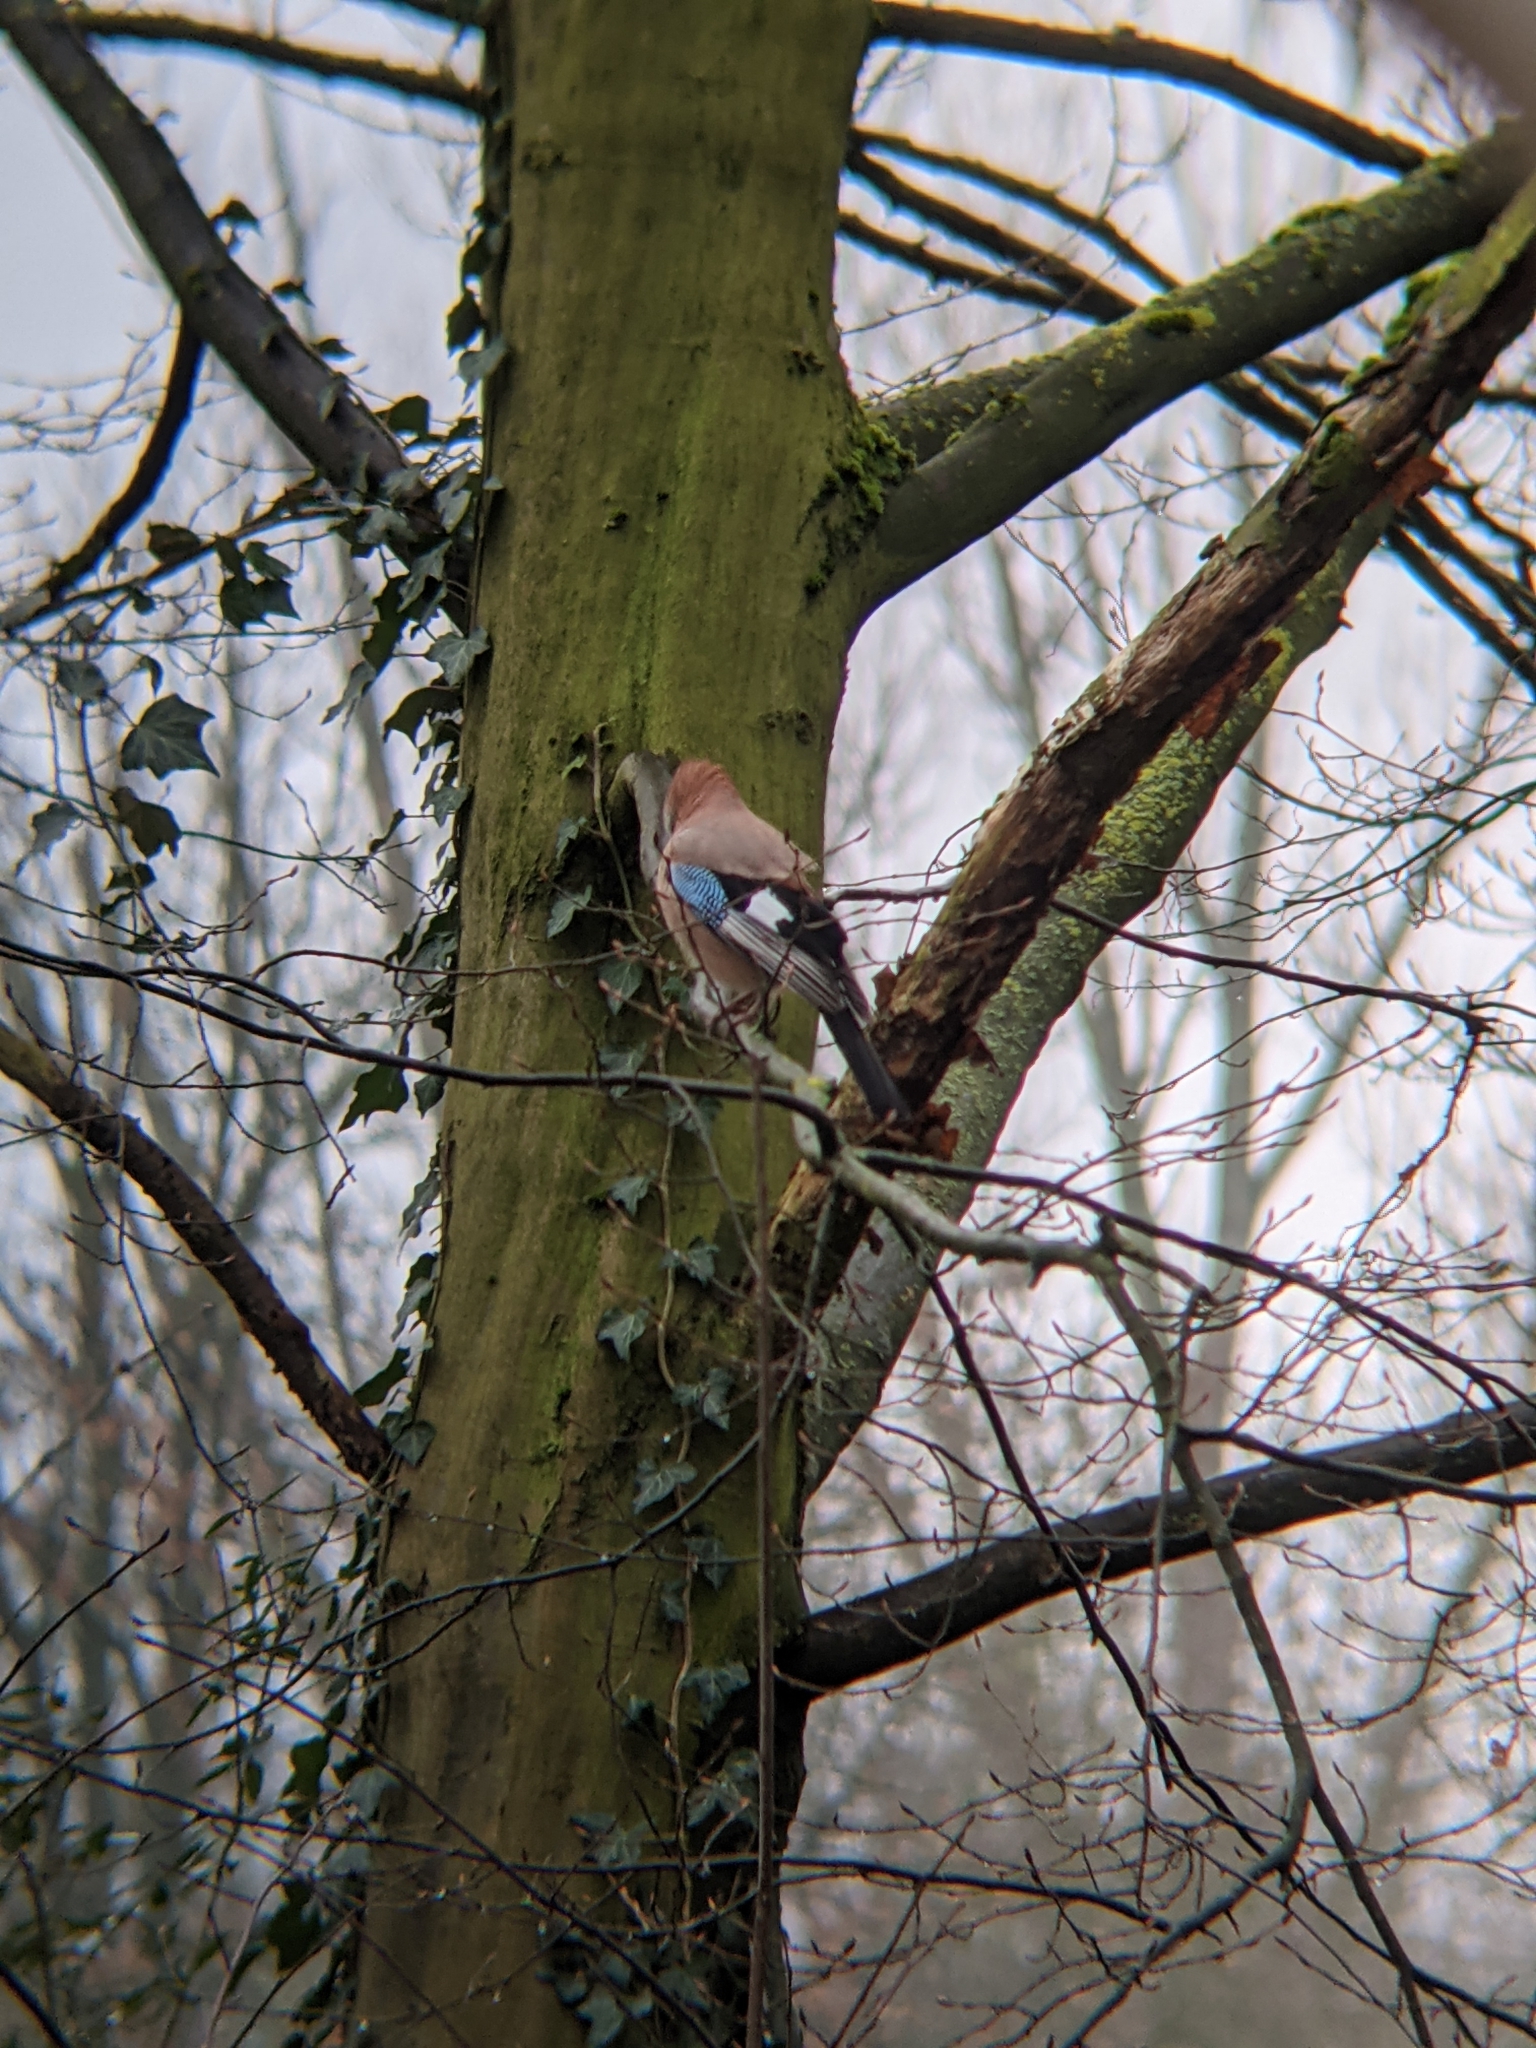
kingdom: Animalia
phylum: Chordata
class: Aves
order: Passeriformes
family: Corvidae
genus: Garrulus
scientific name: Garrulus glandarius
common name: Eurasian jay
